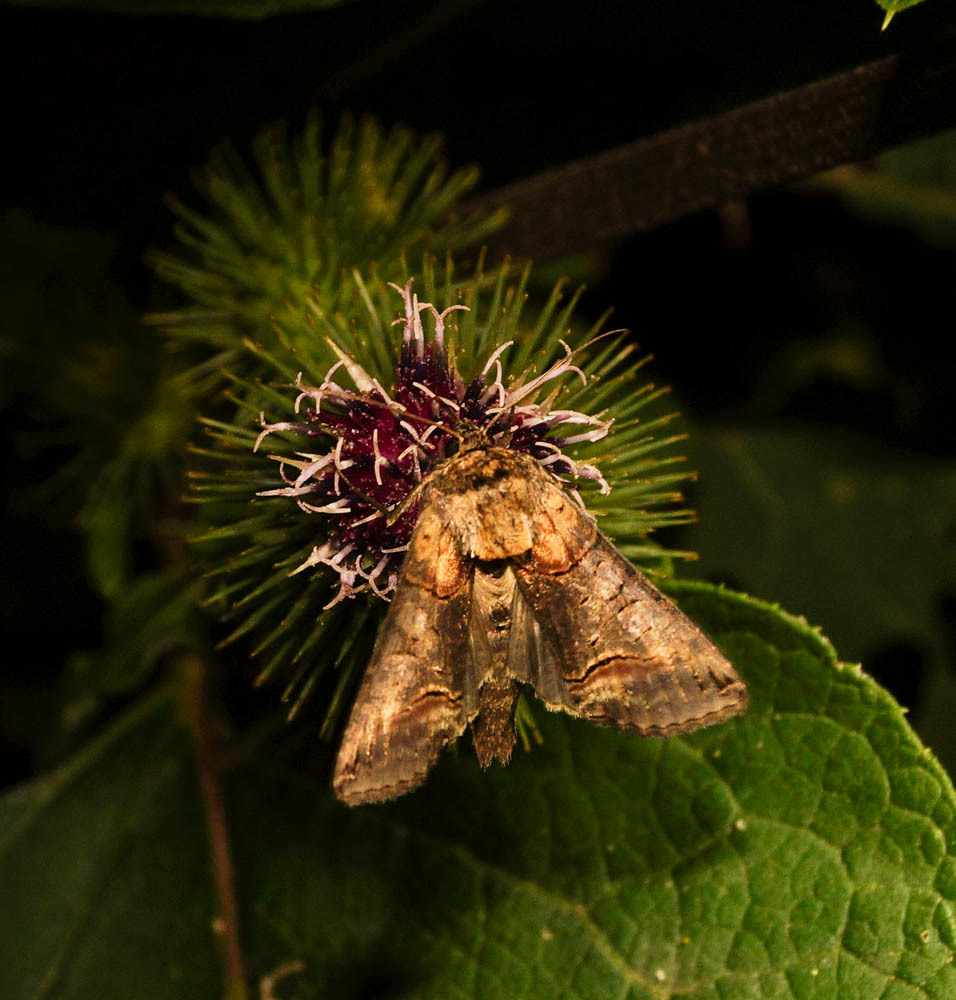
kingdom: Animalia
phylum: Arthropoda
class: Insecta
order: Lepidoptera
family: Noctuidae
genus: Abrostola
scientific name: Abrostola triplasia
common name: Dark spectacle
